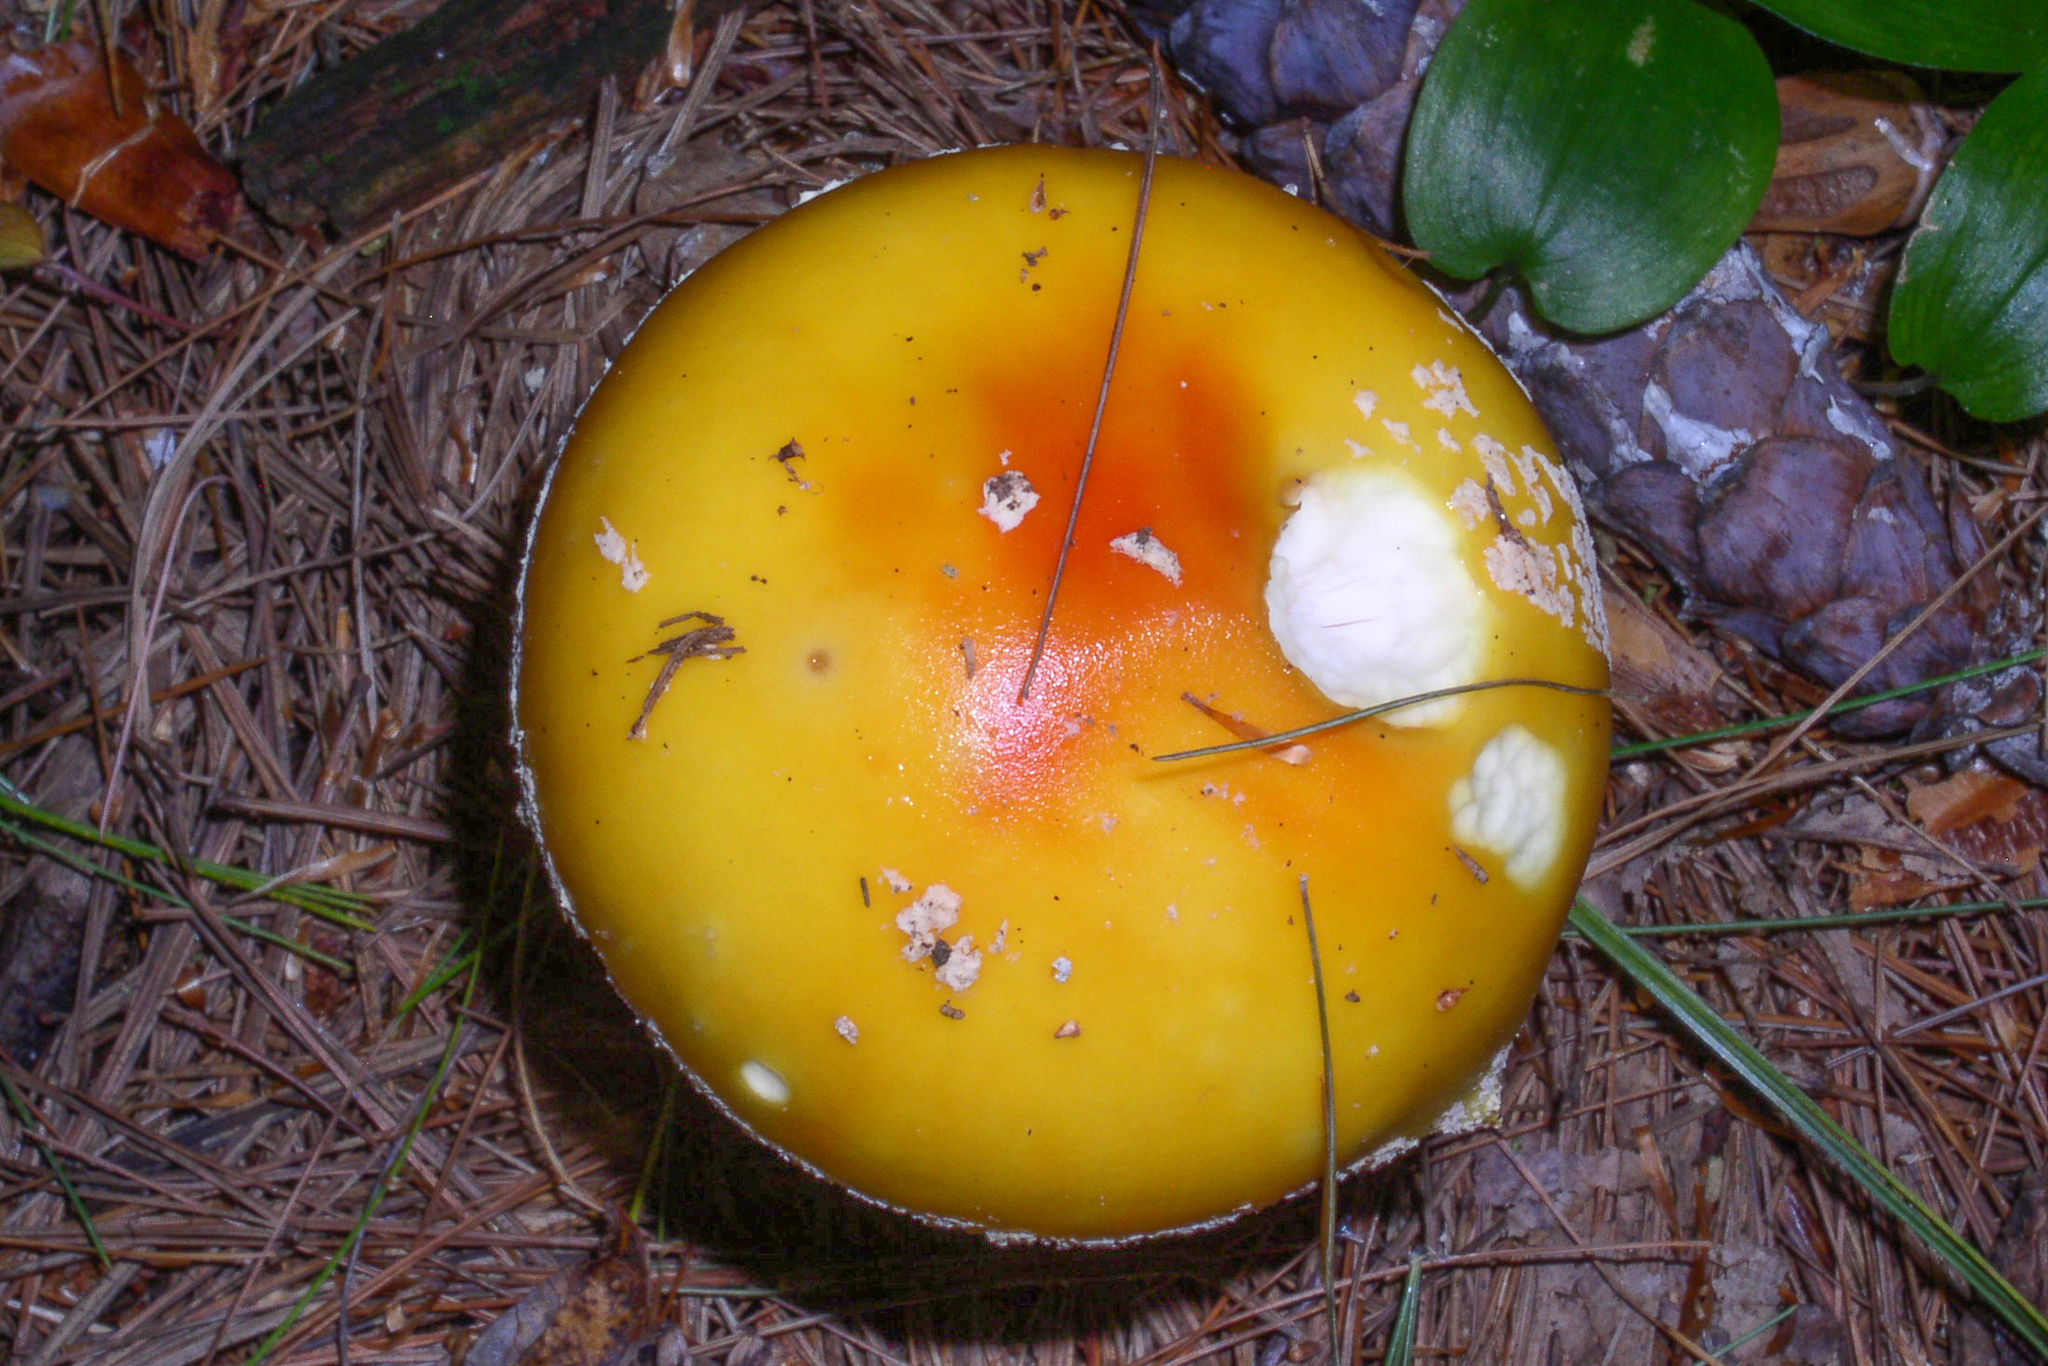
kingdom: Fungi
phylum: Basidiomycota
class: Agaricomycetes
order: Agaricales
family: Amanitaceae
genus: Amanita
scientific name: Amanita muscaria
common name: Fly agaric
